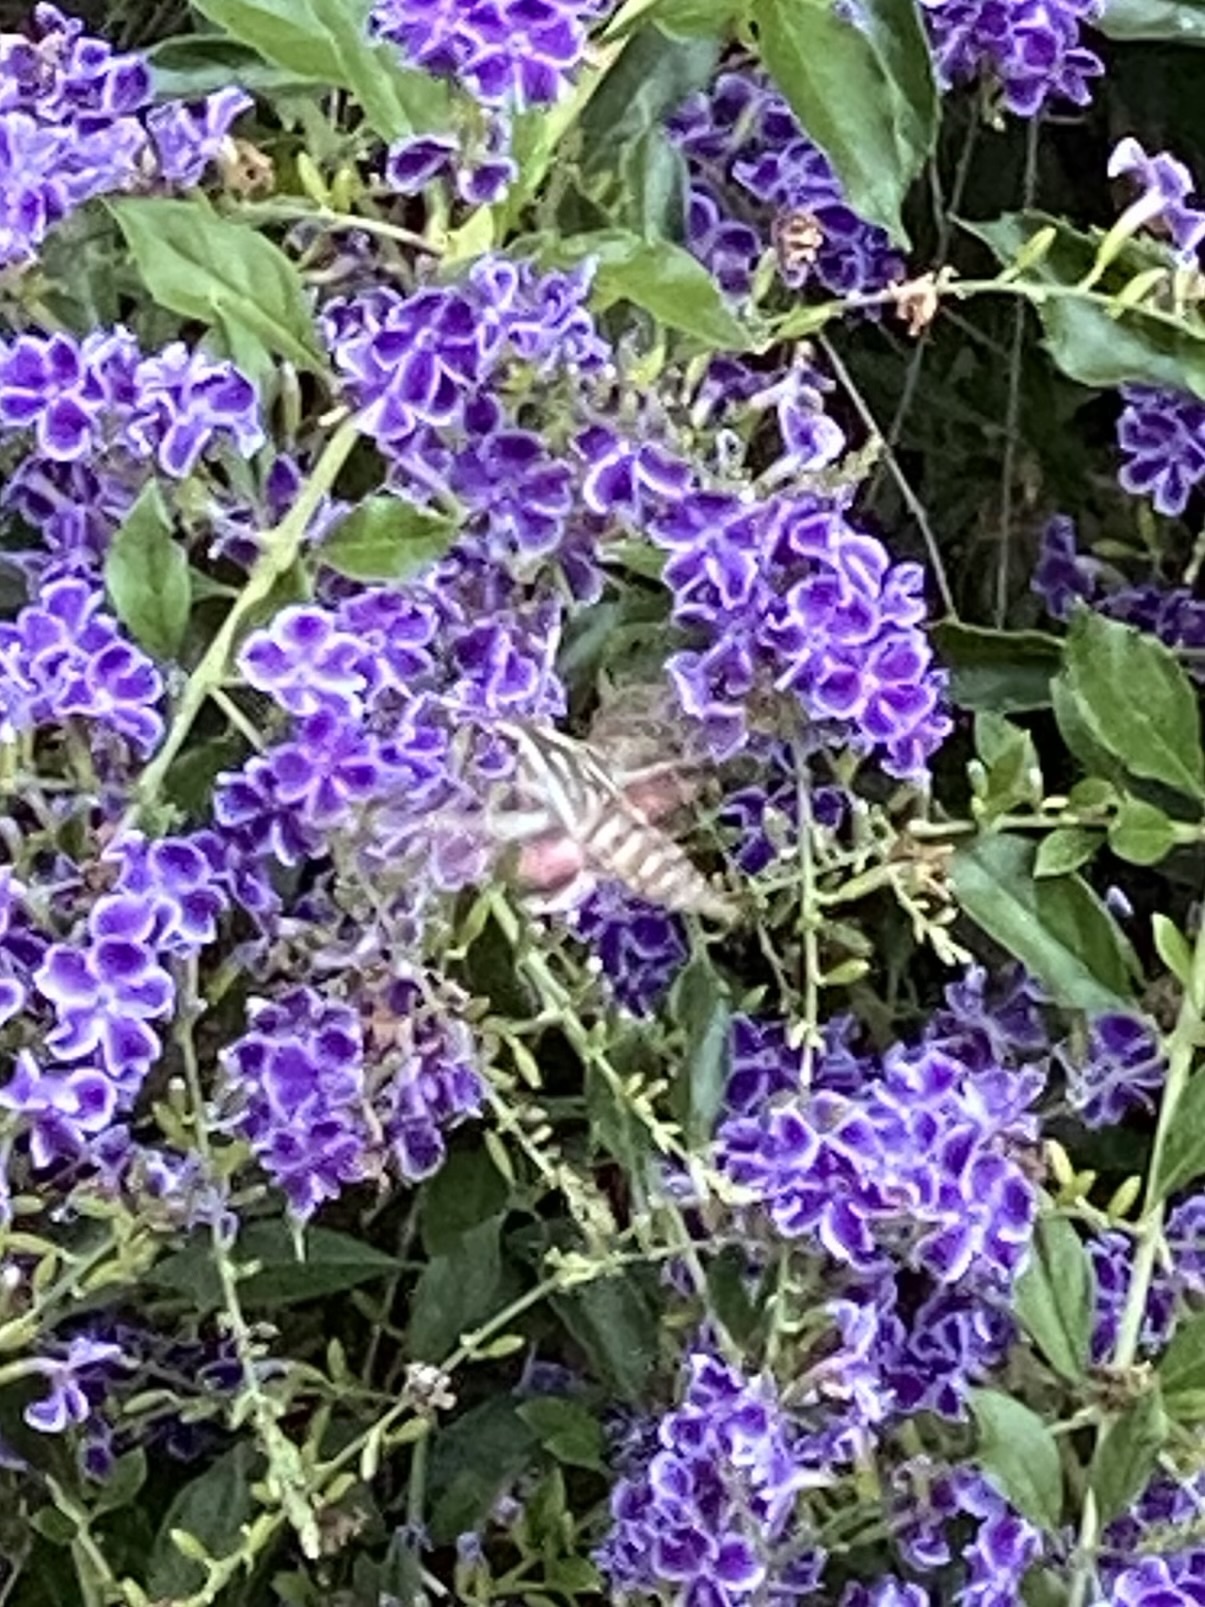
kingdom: Animalia
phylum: Arthropoda
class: Insecta
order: Lepidoptera
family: Sphingidae
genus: Hyles
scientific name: Hyles lineata
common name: White-lined sphinx
